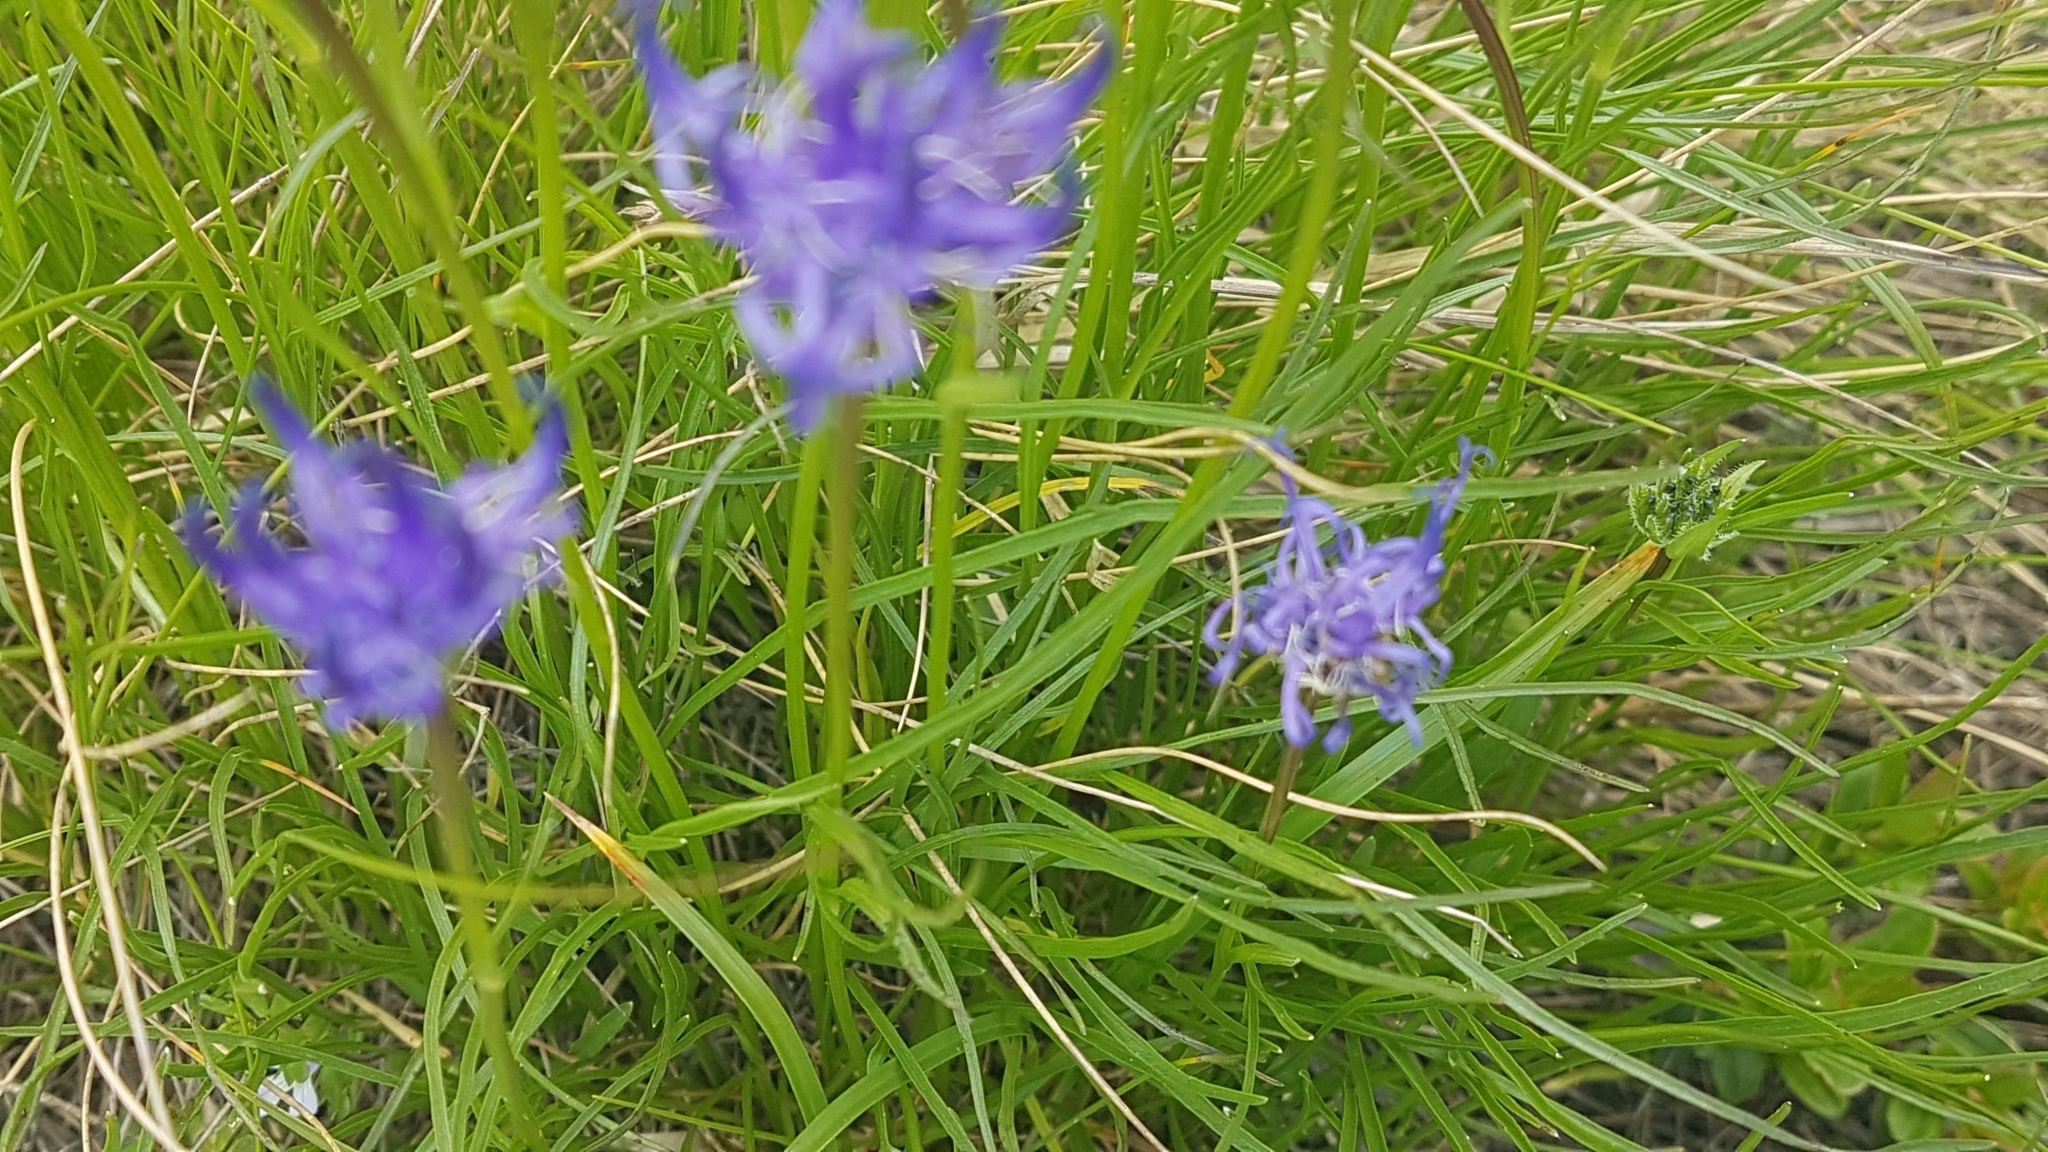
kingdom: Plantae
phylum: Tracheophyta
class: Magnoliopsida
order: Asterales
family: Campanulaceae
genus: Phyteuma
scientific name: Phyteuma hemisphaericum
